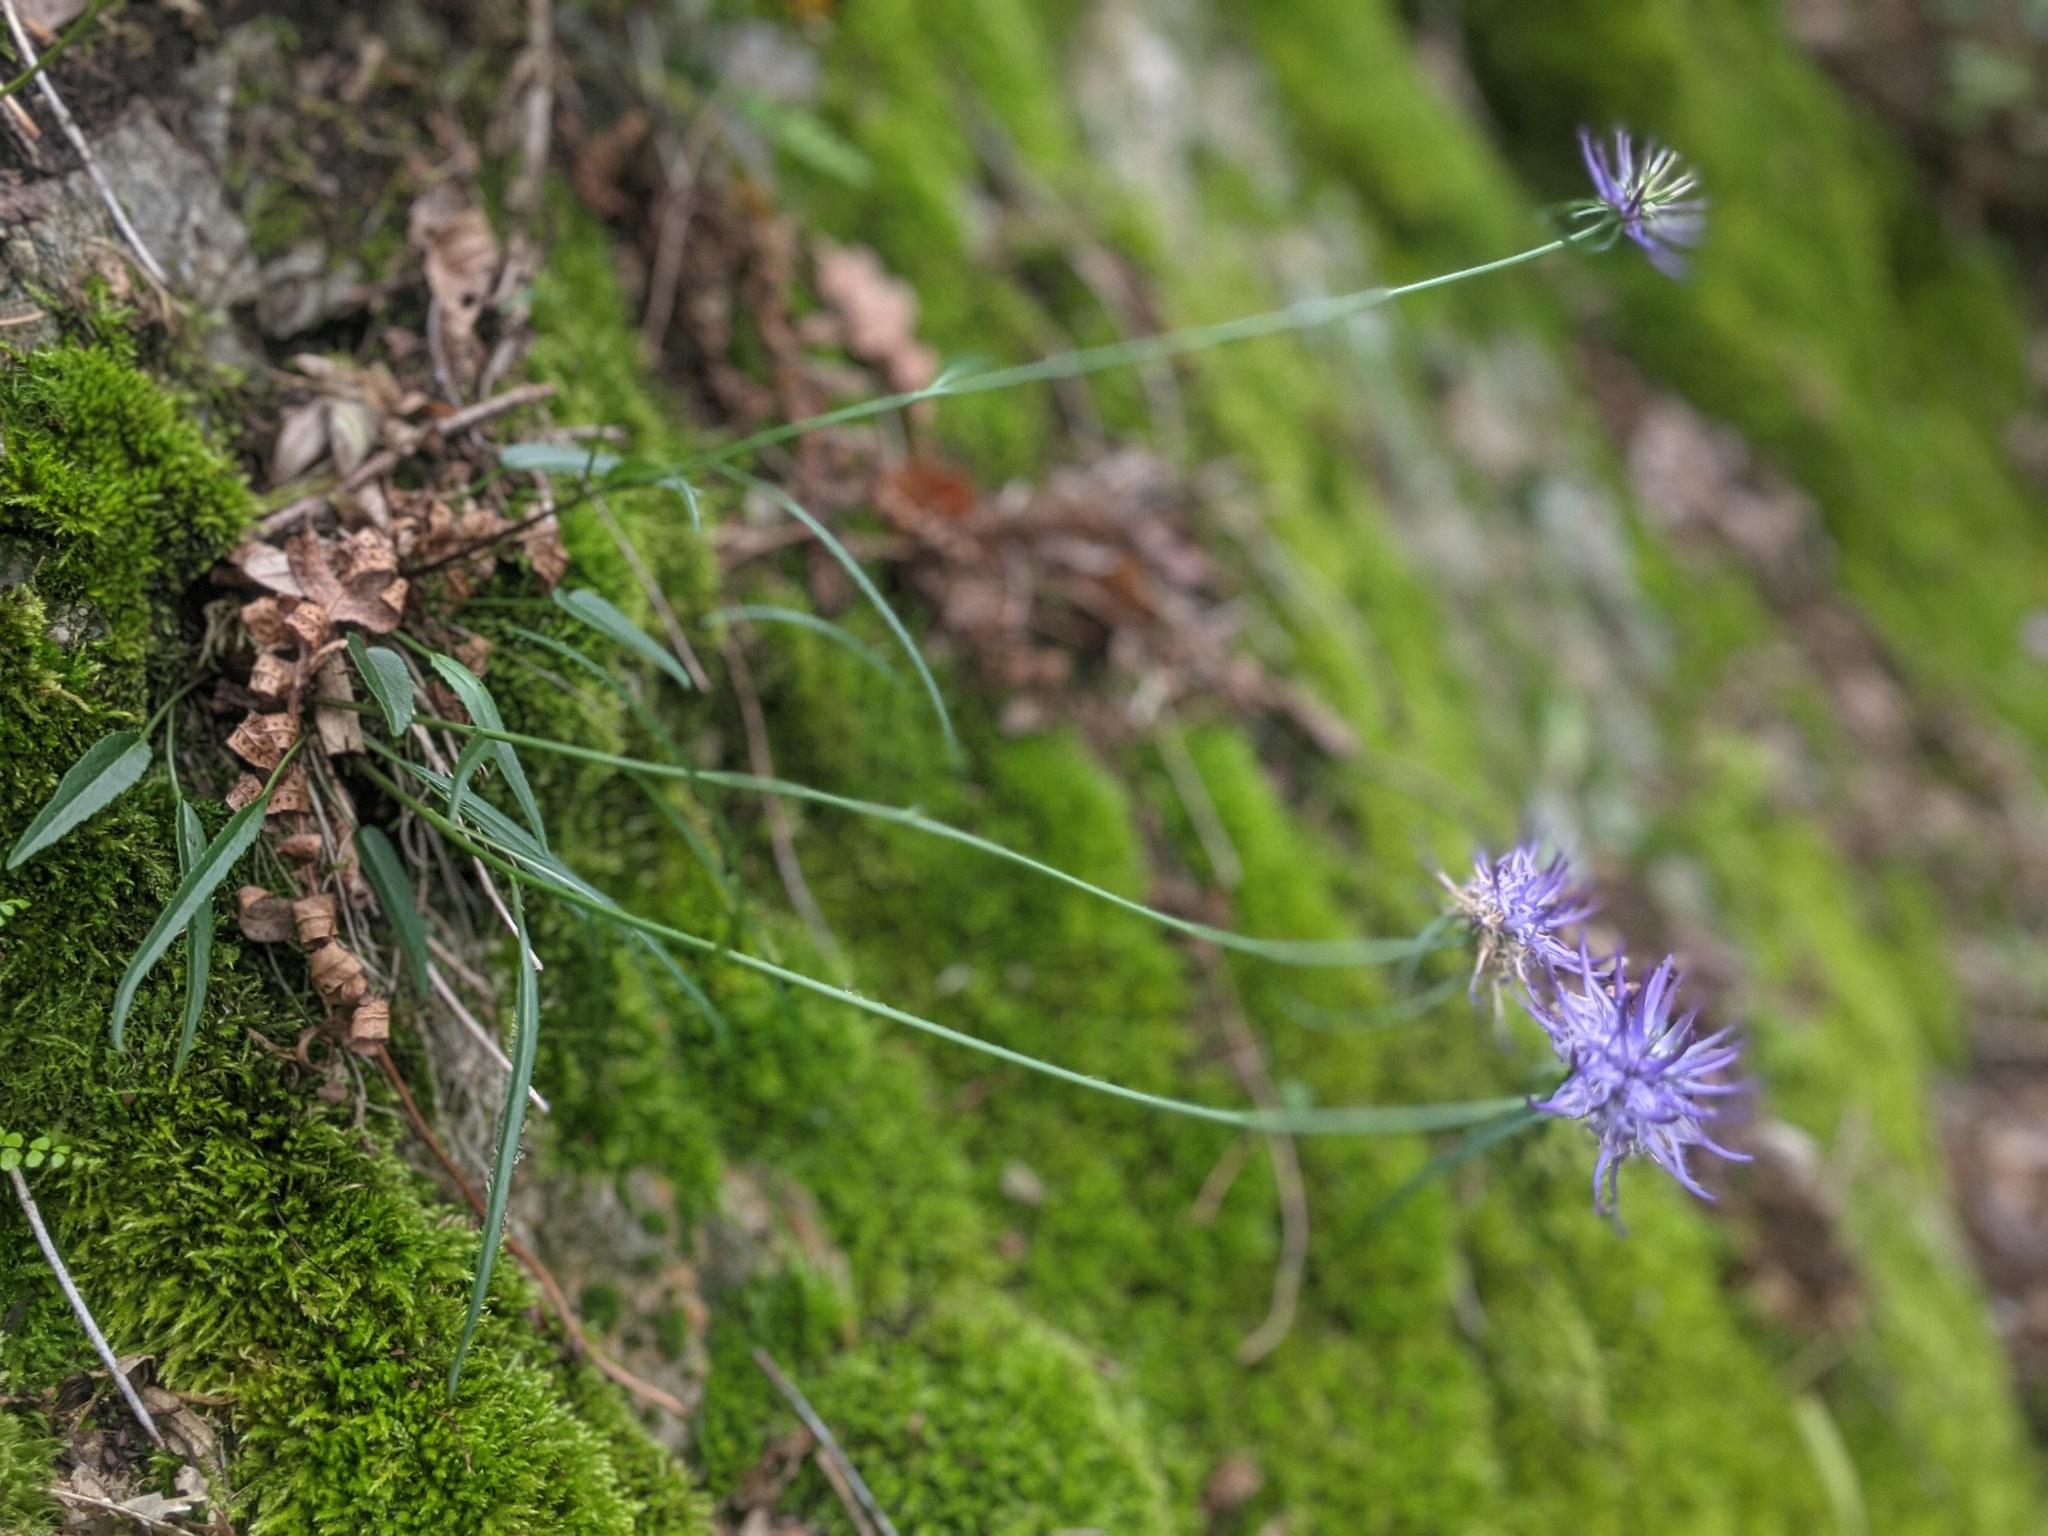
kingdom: Plantae
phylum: Tracheophyta
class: Magnoliopsida
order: Asterales
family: Campanulaceae
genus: Phyteuma
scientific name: Phyteuma scheuchzeri
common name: Oxford rampion
